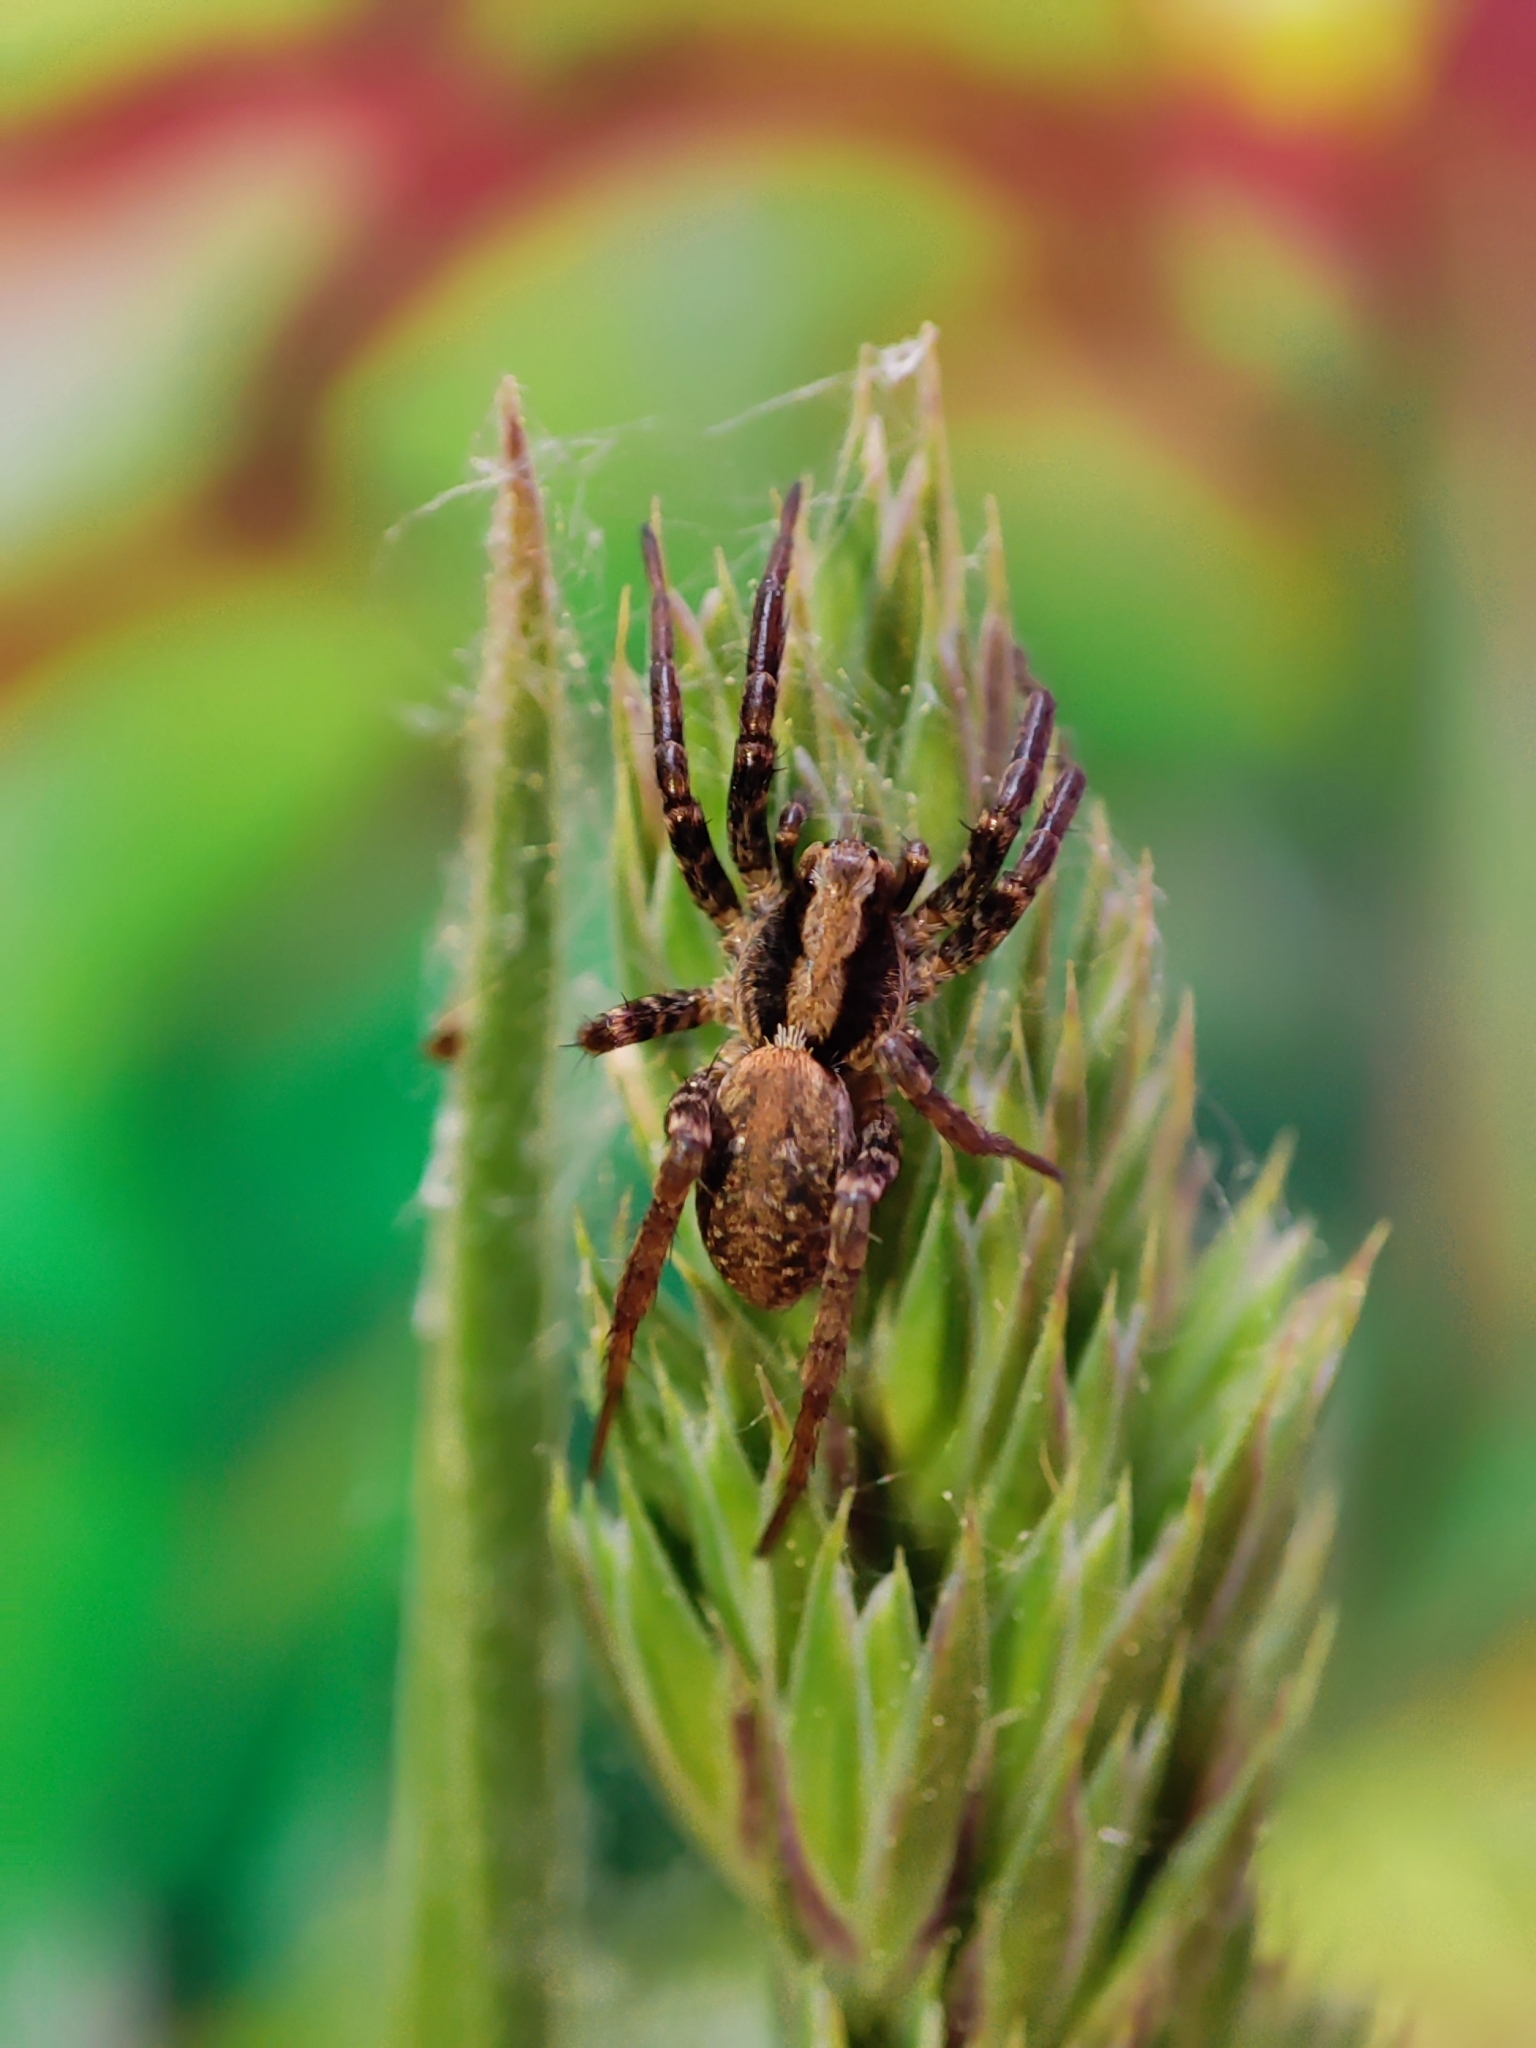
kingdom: Animalia
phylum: Arthropoda
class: Arachnida
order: Araneae
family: Lycosidae
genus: Xerolycosa
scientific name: Xerolycosa nemoralis
